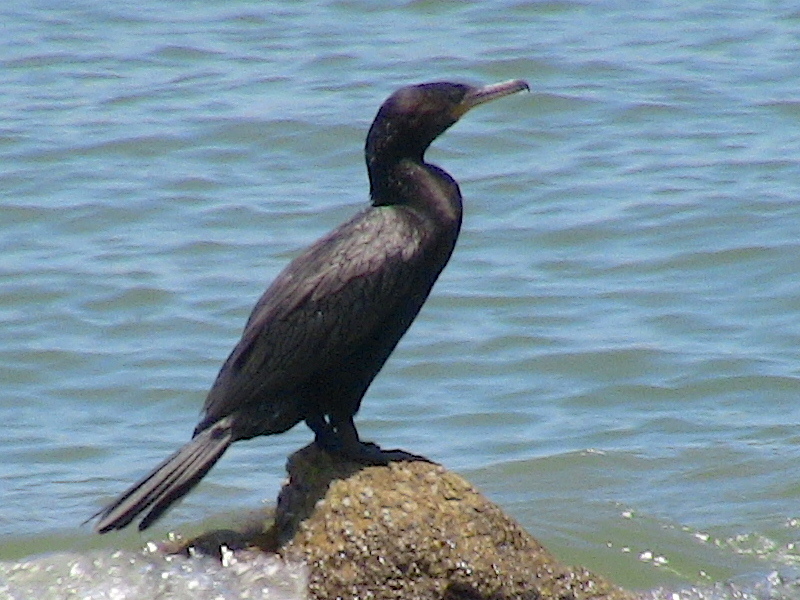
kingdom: Animalia
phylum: Chordata
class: Aves
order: Suliformes
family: Phalacrocoracidae
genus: Phalacrocorax
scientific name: Phalacrocorax brasilianus
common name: Neotropic cormorant
